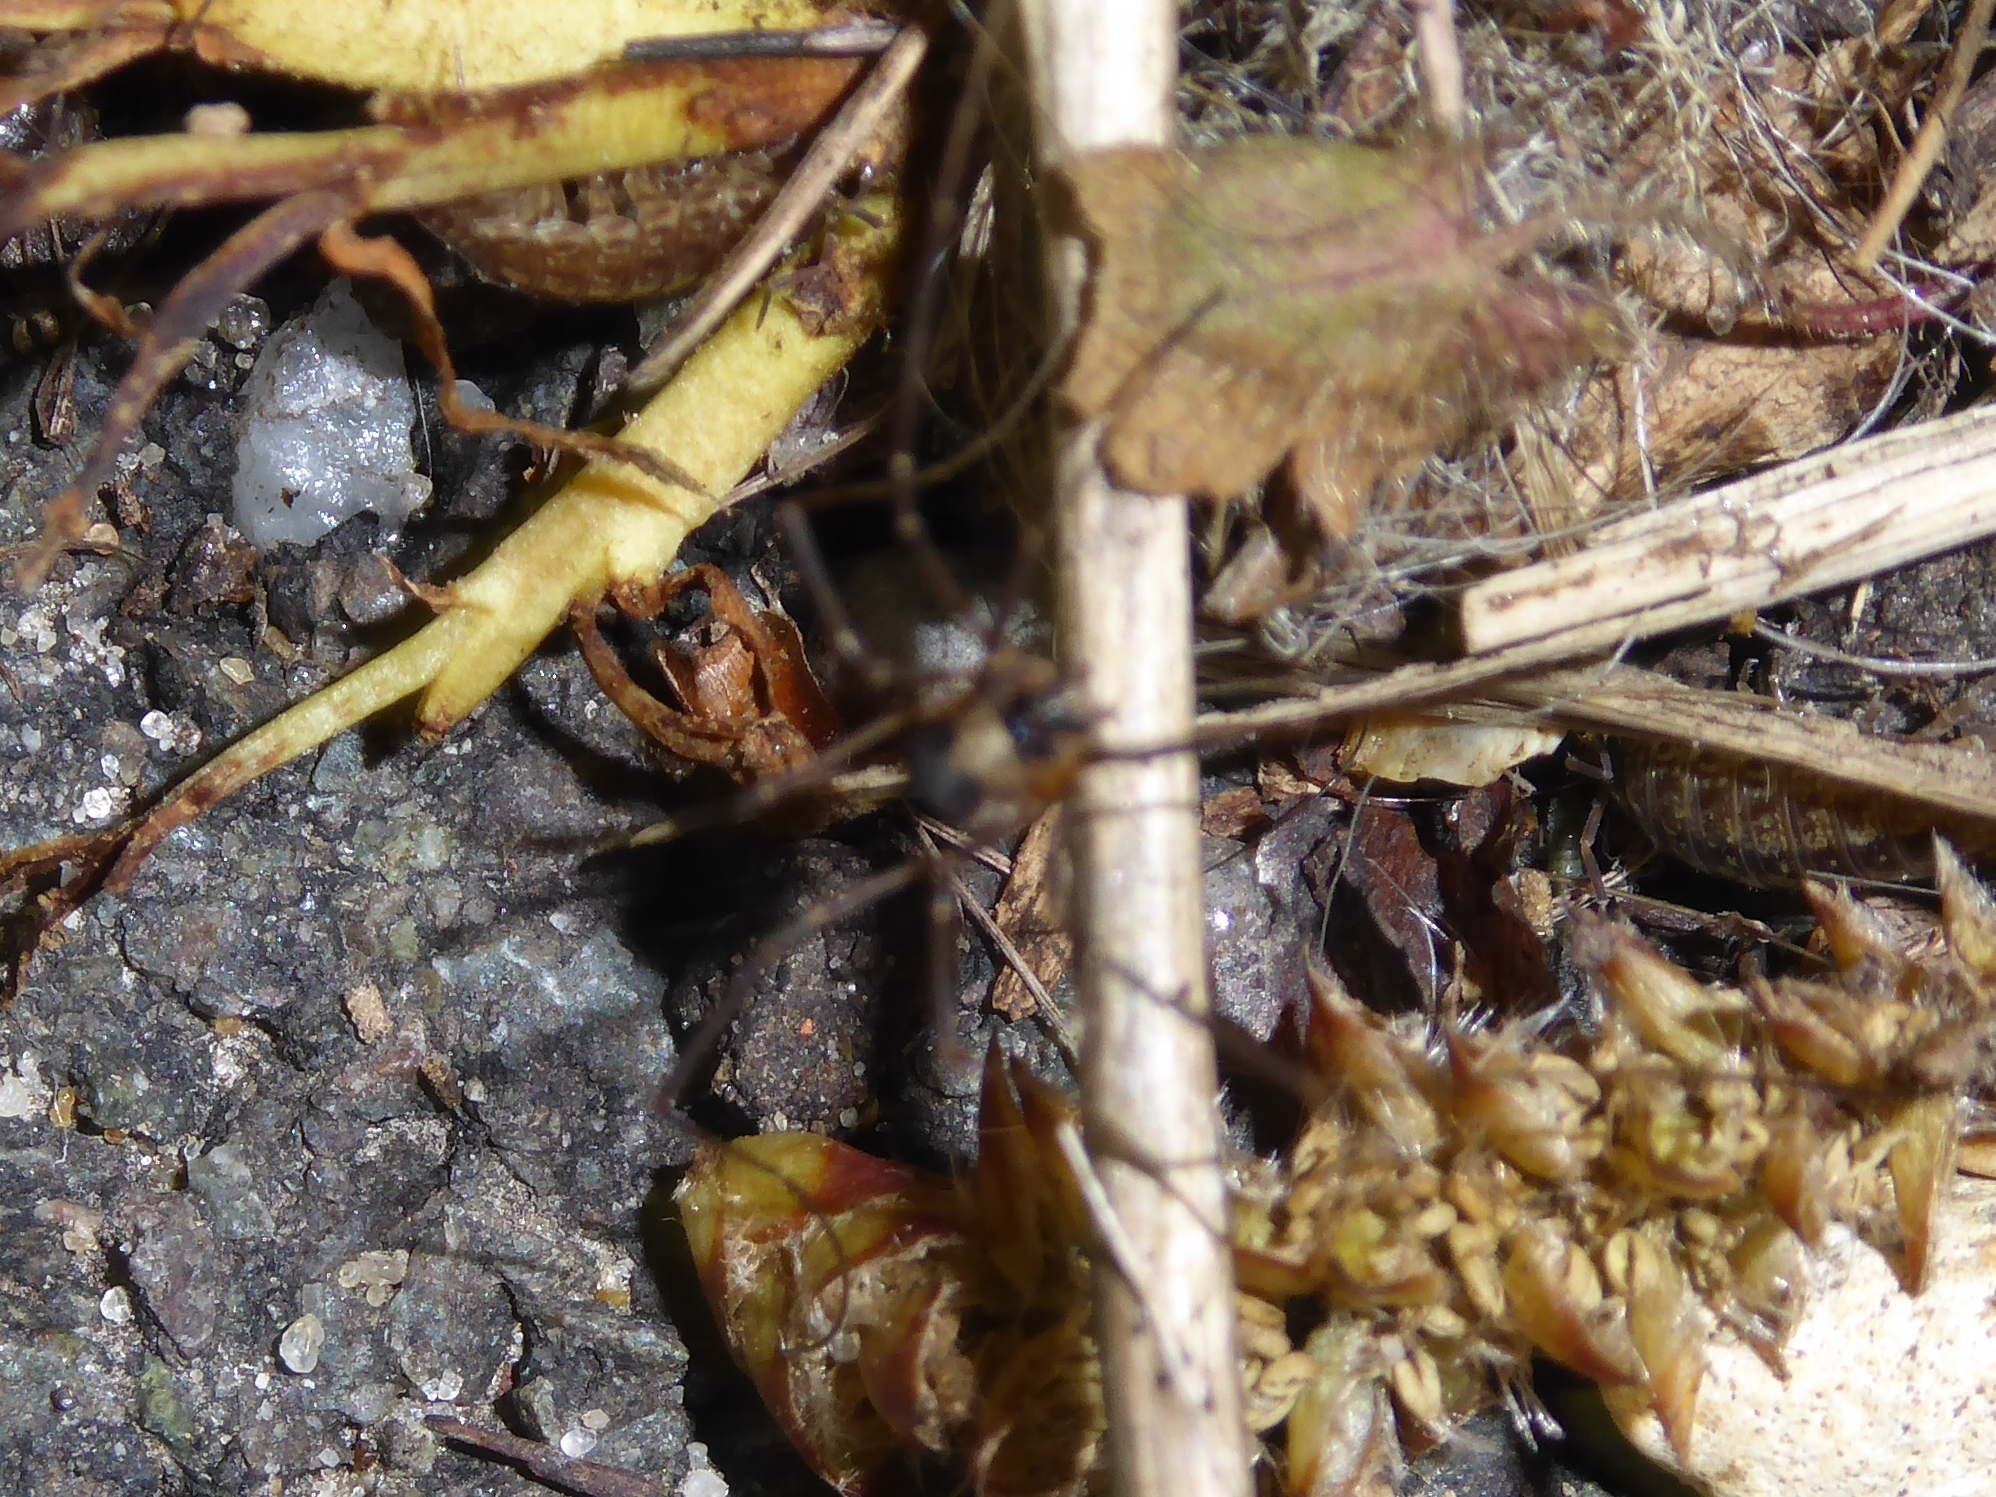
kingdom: Animalia
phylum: Arthropoda
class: Arachnida
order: Opiliones
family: Phalangiidae
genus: Dicranopalpus
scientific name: Dicranopalpus larvatus
